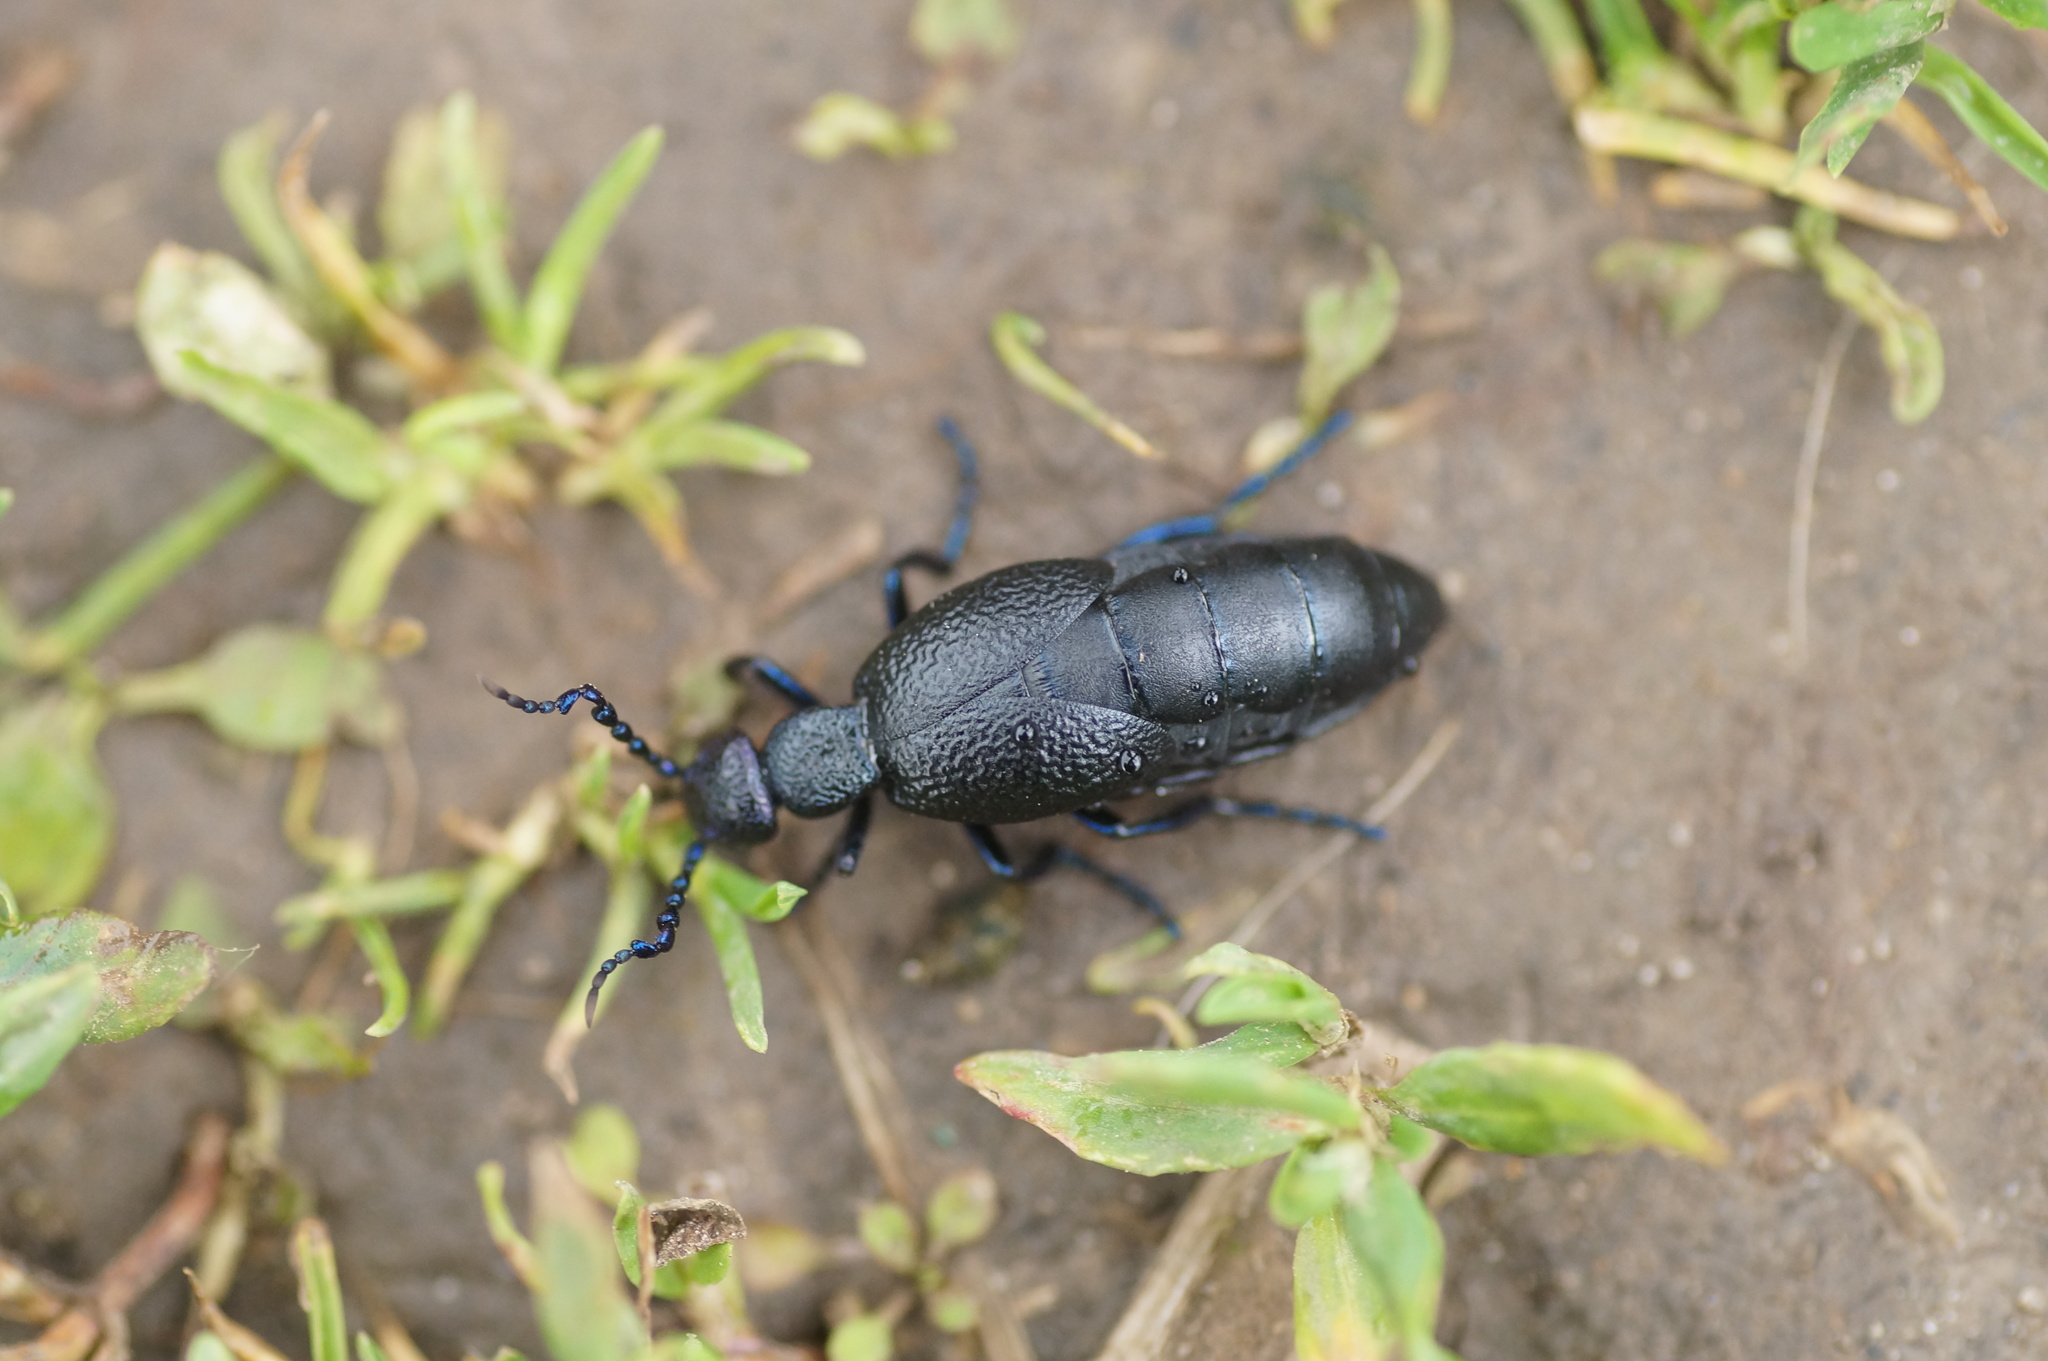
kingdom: Animalia
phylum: Arthropoda
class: Insecta
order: Coleoptera
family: Meloidae
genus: Meloe
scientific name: Meloe proscarabaeus
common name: Black oil-beetle
